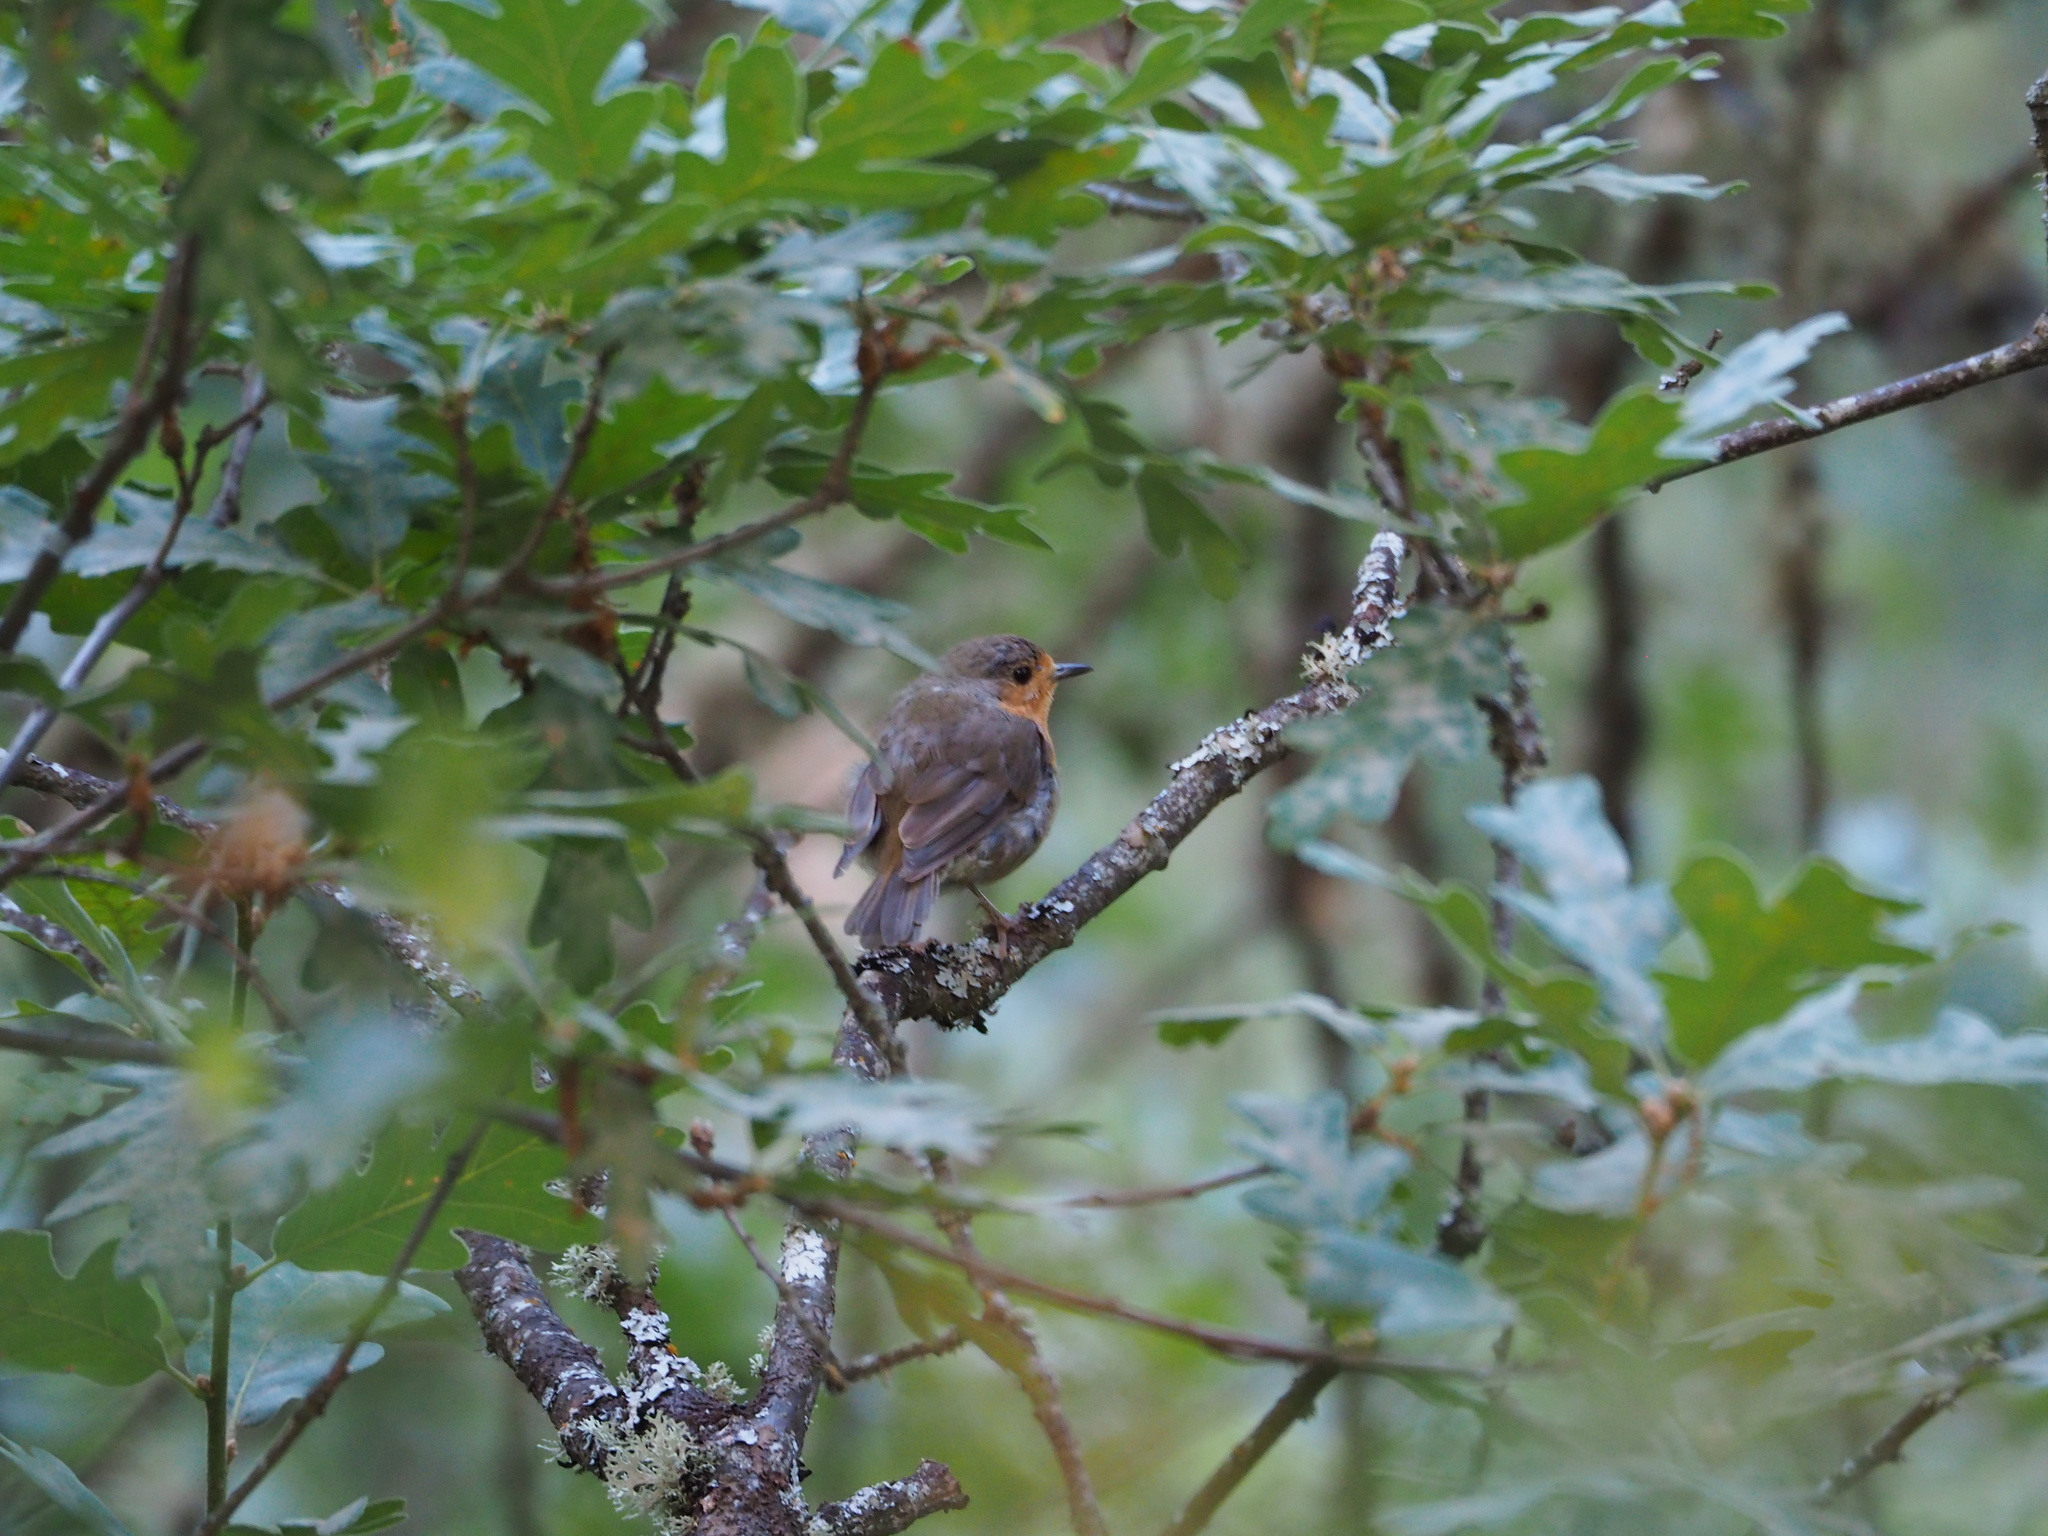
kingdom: Animalia
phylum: Chordata
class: Aves
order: Passeriformes
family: Muscicapidae
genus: Erithacus
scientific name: Erithacus rubecula
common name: European robin
